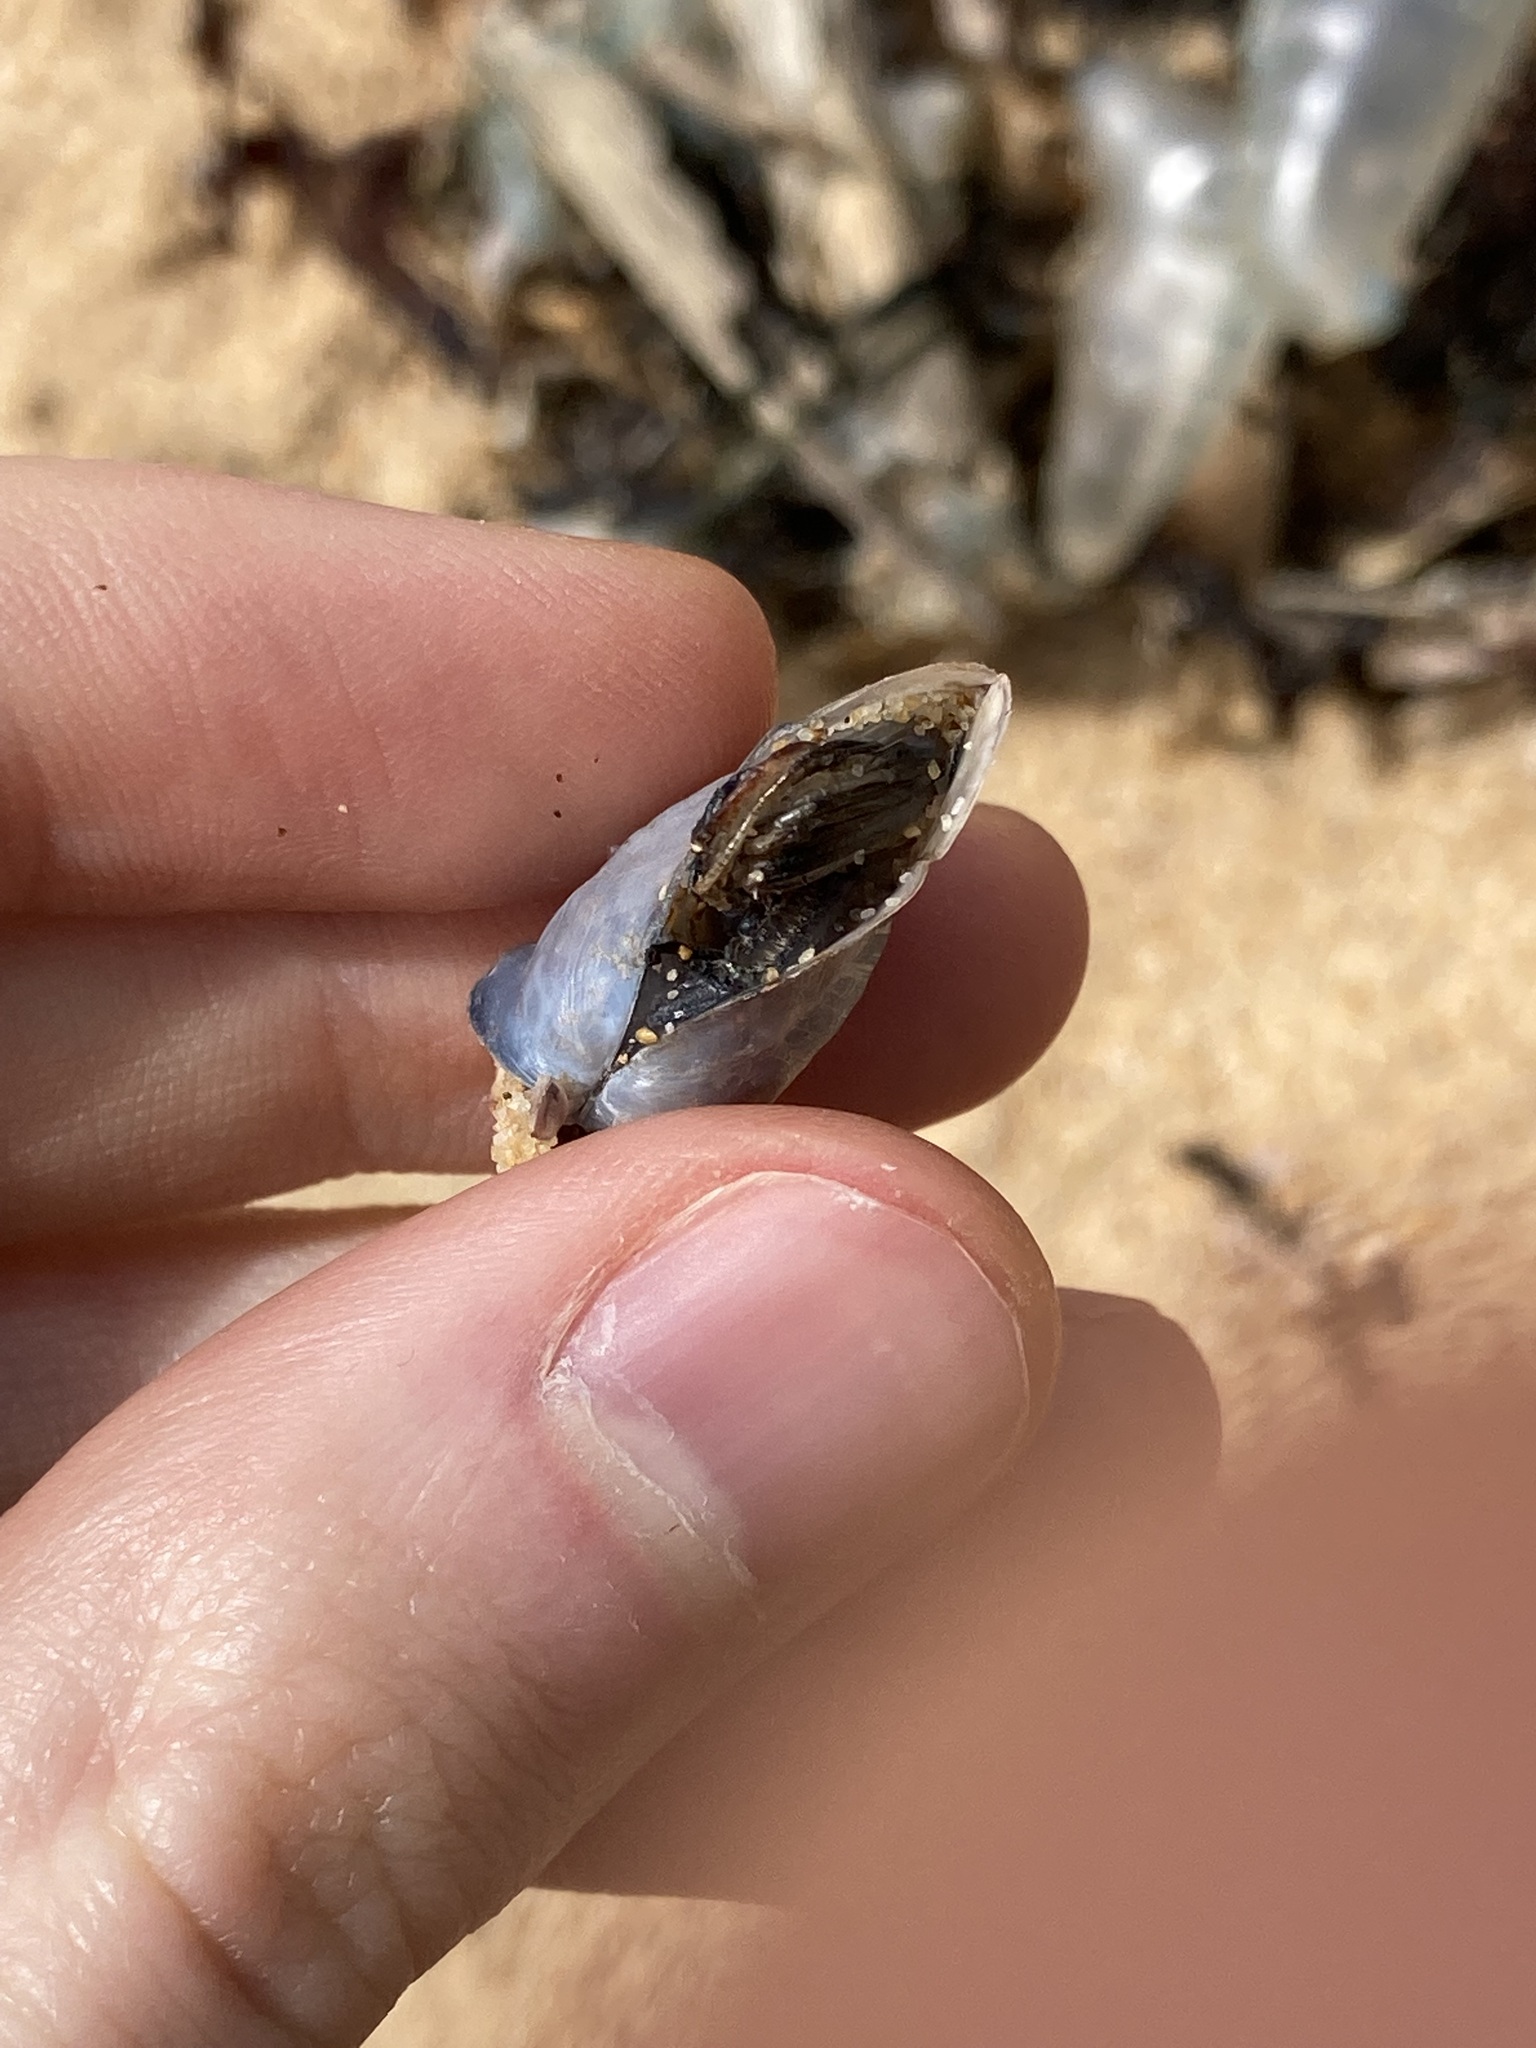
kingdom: Animalia
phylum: Arthropoda
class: Maxillopoda
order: Pedunculata
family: Lepadidae
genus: Dosima
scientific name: Dosima fascicularis
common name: Buoy barnacle
